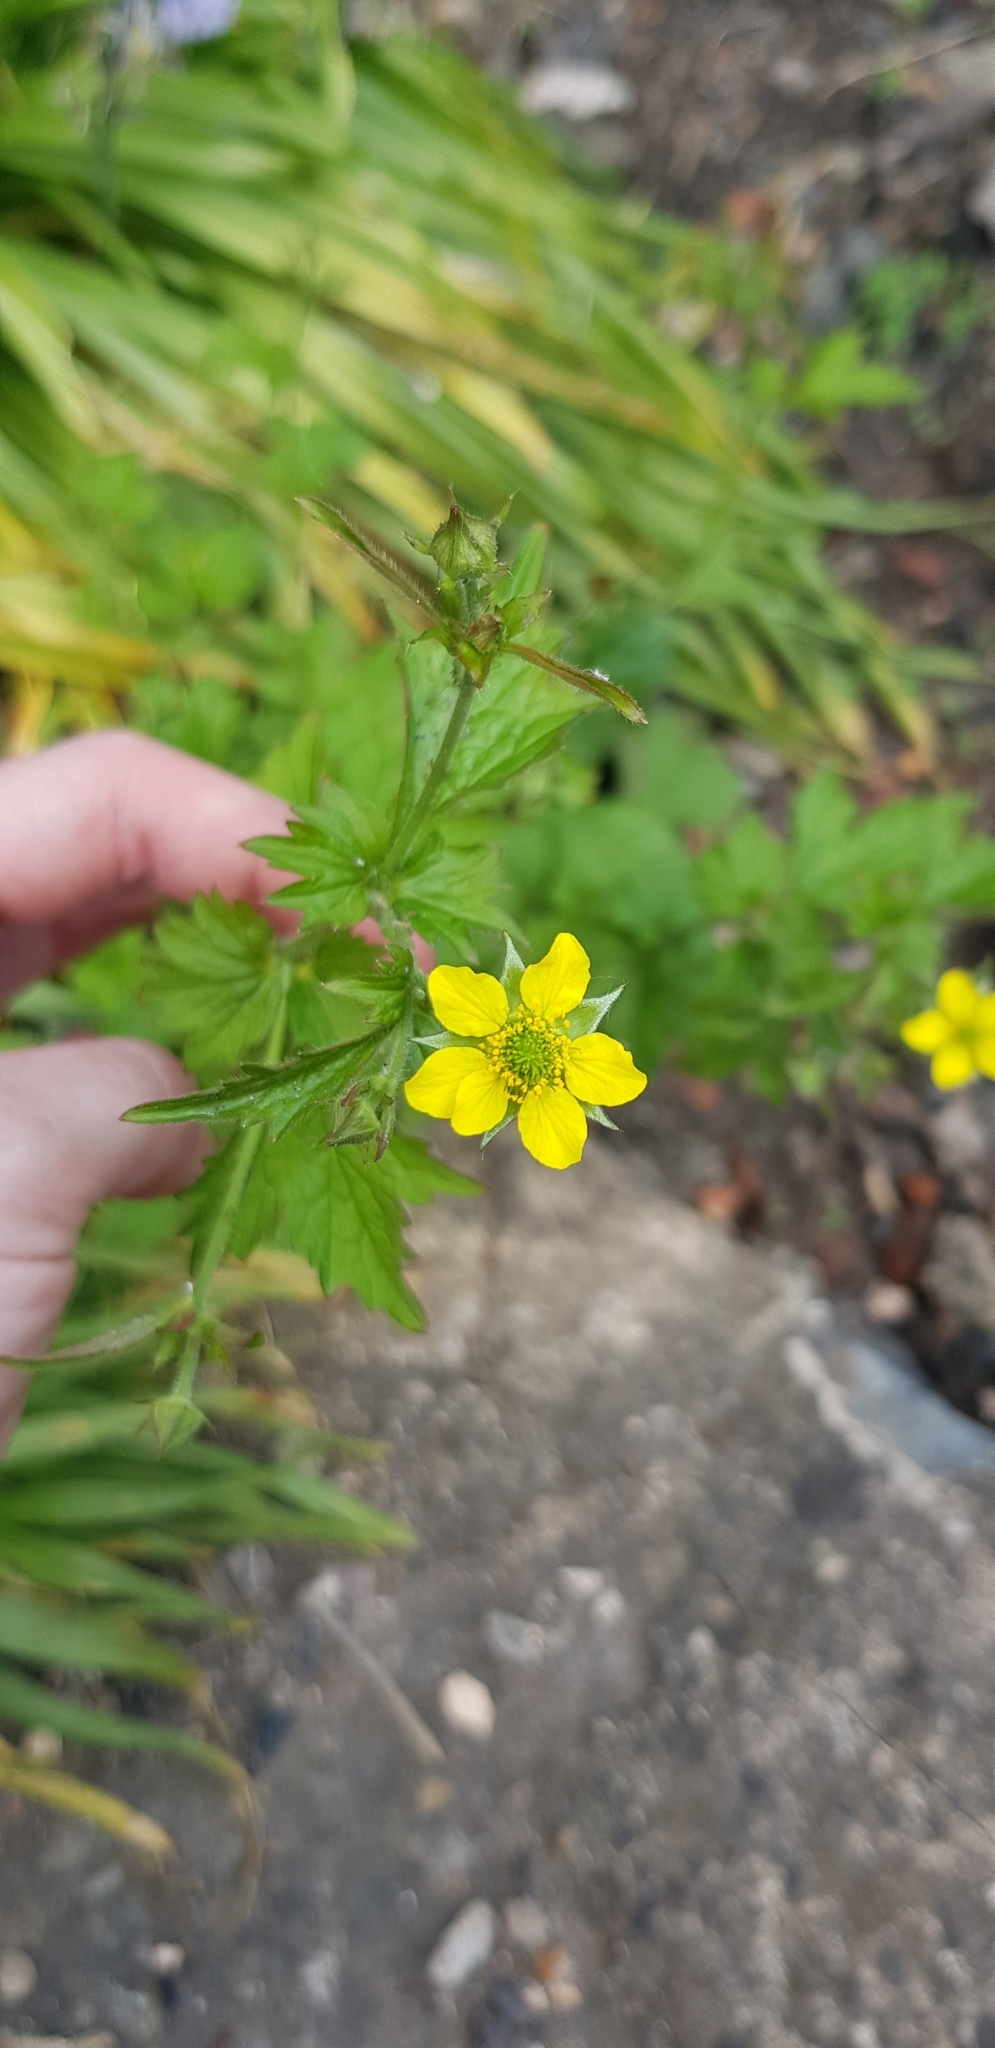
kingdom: Plantae
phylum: Tracheophyta
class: Magnoliopsida
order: Rosales
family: Rosaceae
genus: Geum
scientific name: Geum urbanum
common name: Wood avens
